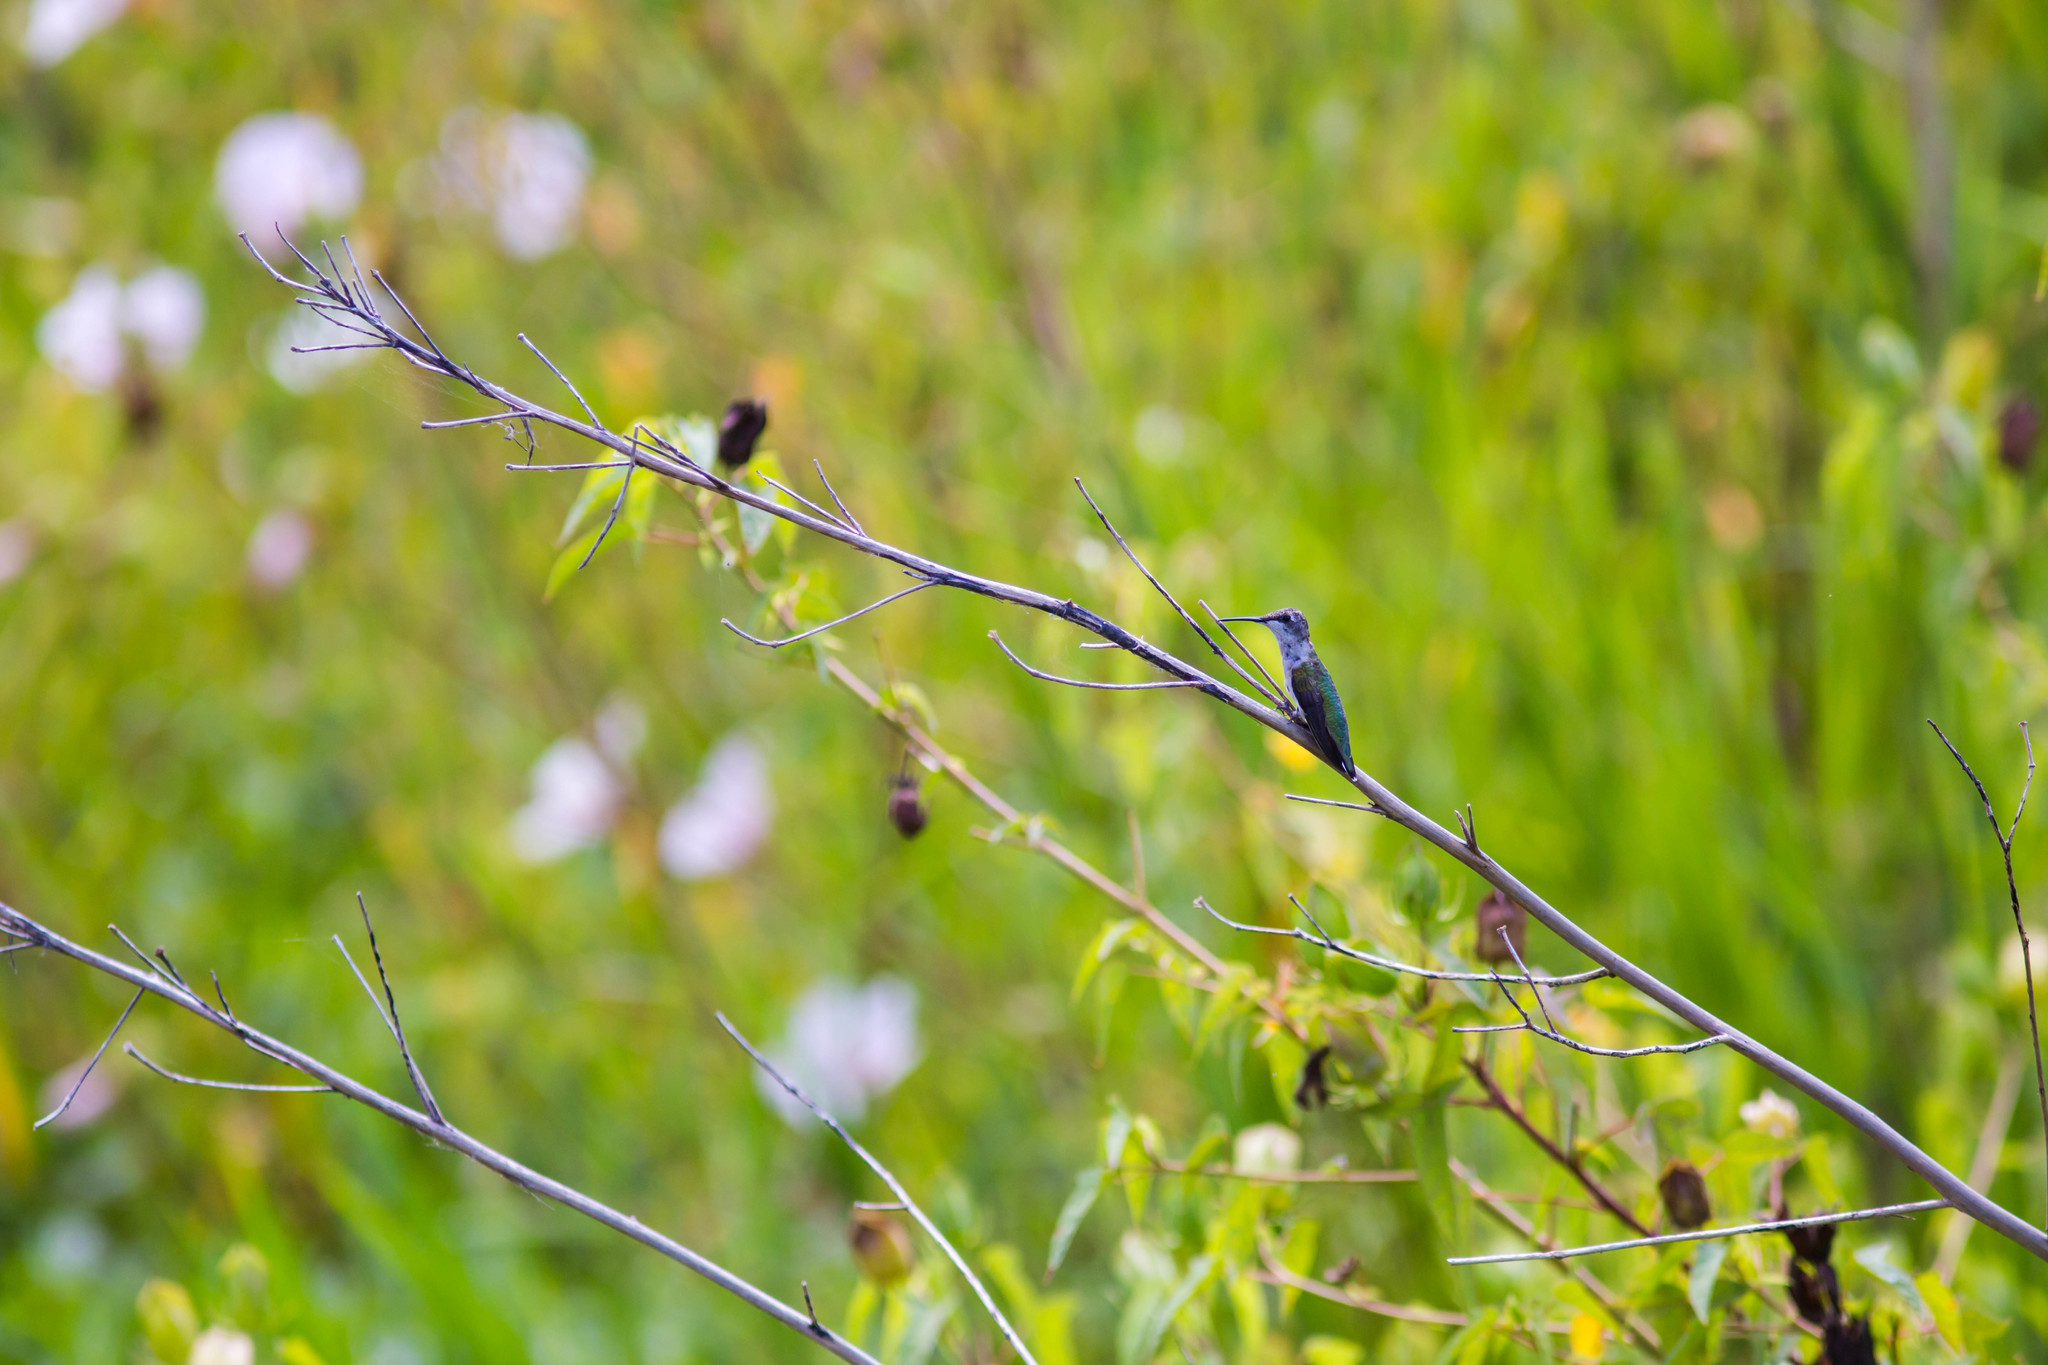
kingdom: Animalia
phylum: Chordata
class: Aves
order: Apodiformes
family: Trochilidae
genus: Archilochus
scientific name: Archilochus colubris
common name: Ruby-throated hummingbird
